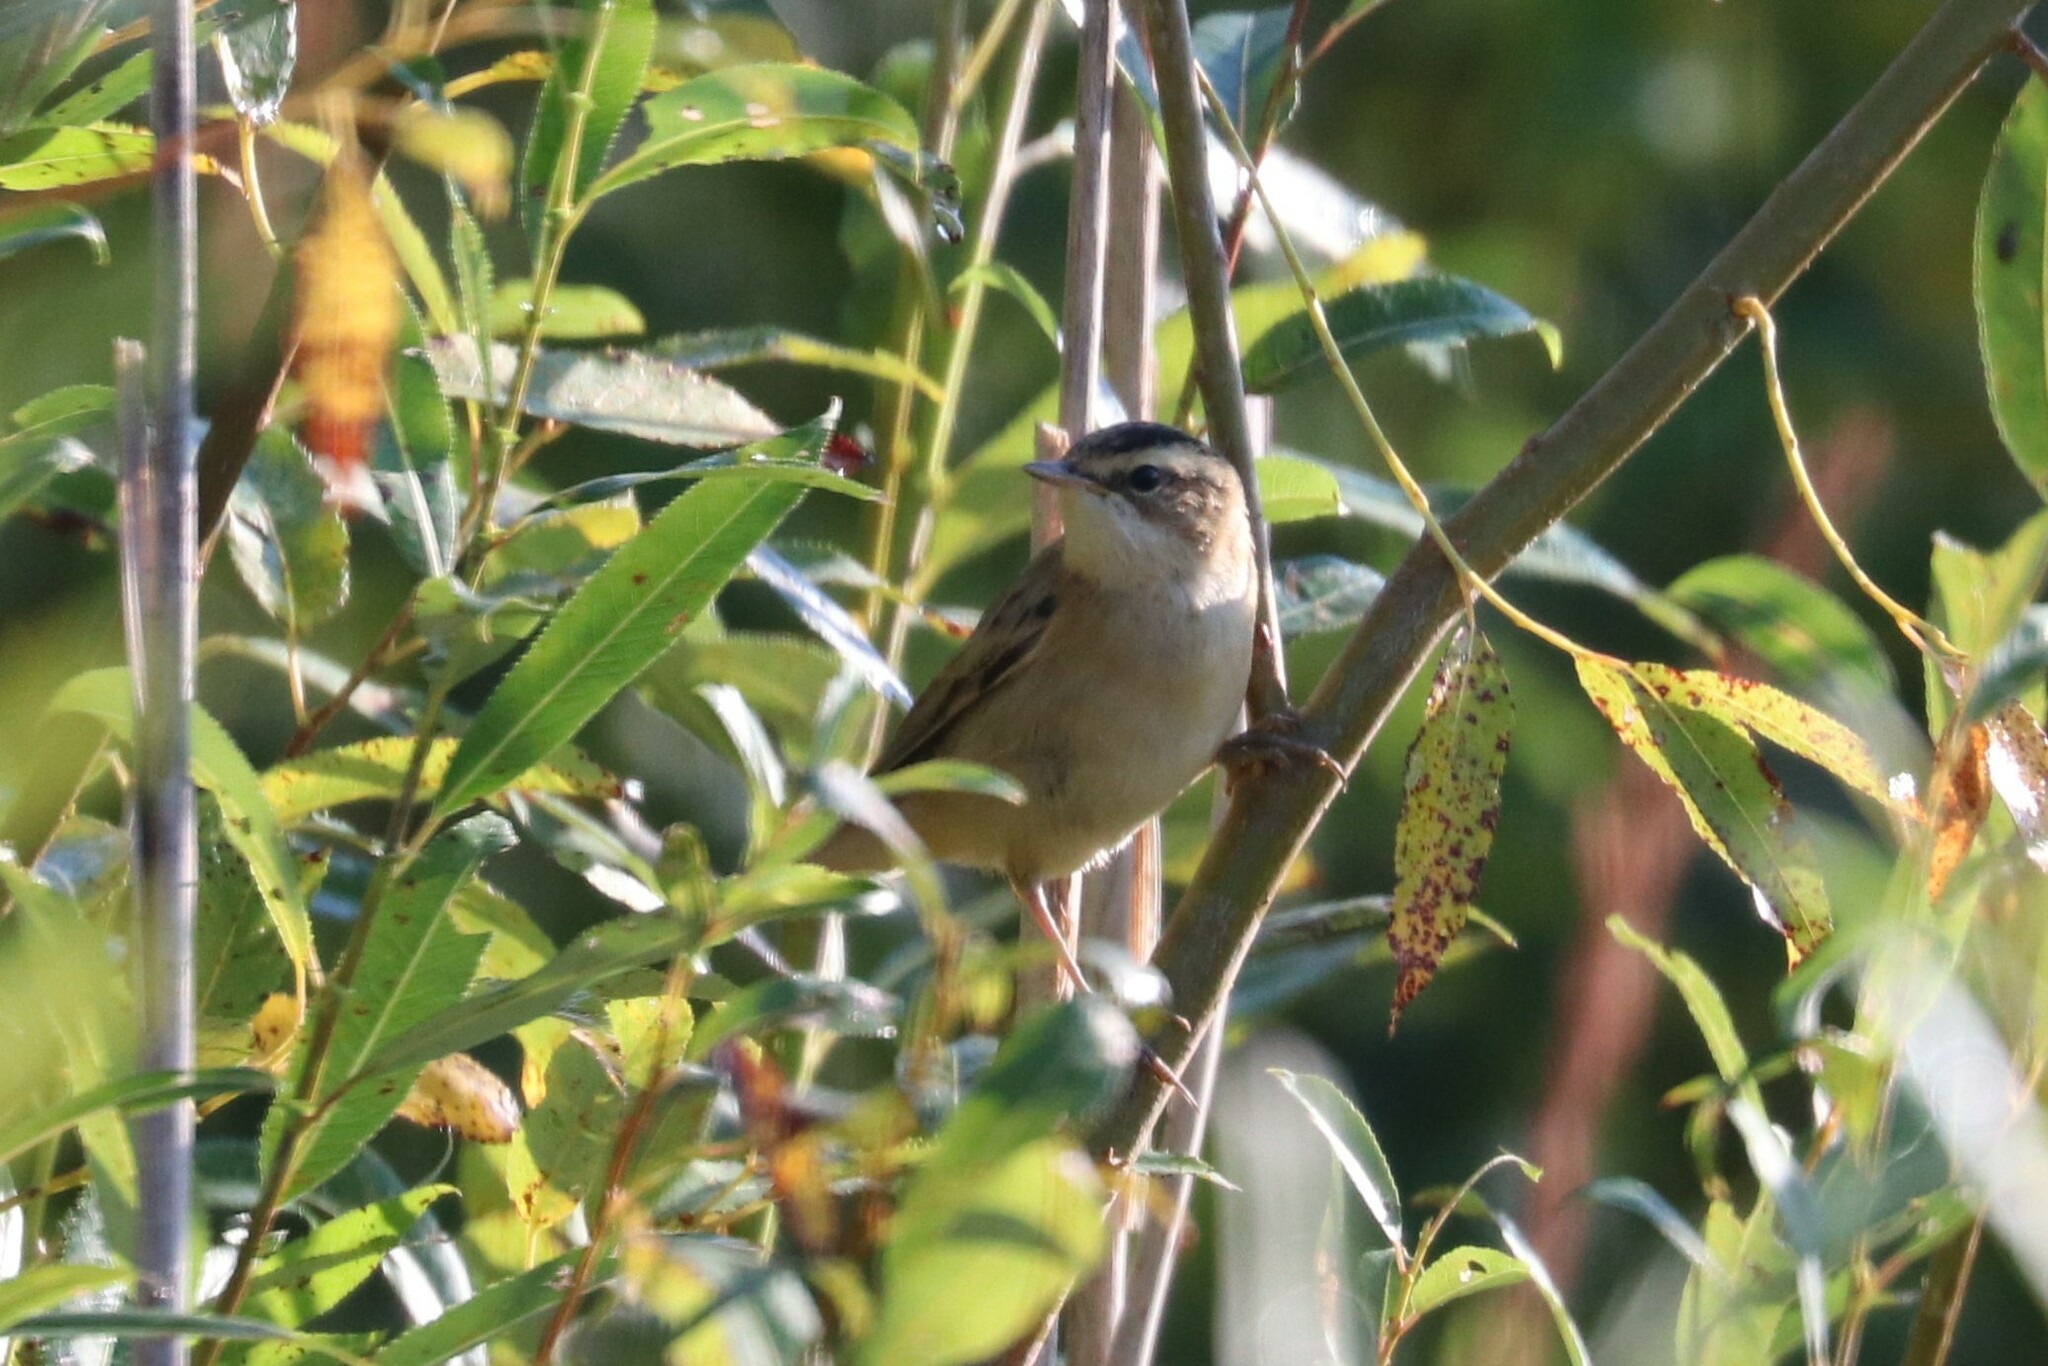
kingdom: Animalia
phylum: Chordata
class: Aves
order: Passeriformes
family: Acrocephalidae
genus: Acrocephalus
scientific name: Acrocephalus schoenobaenus
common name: Sedge warbler
